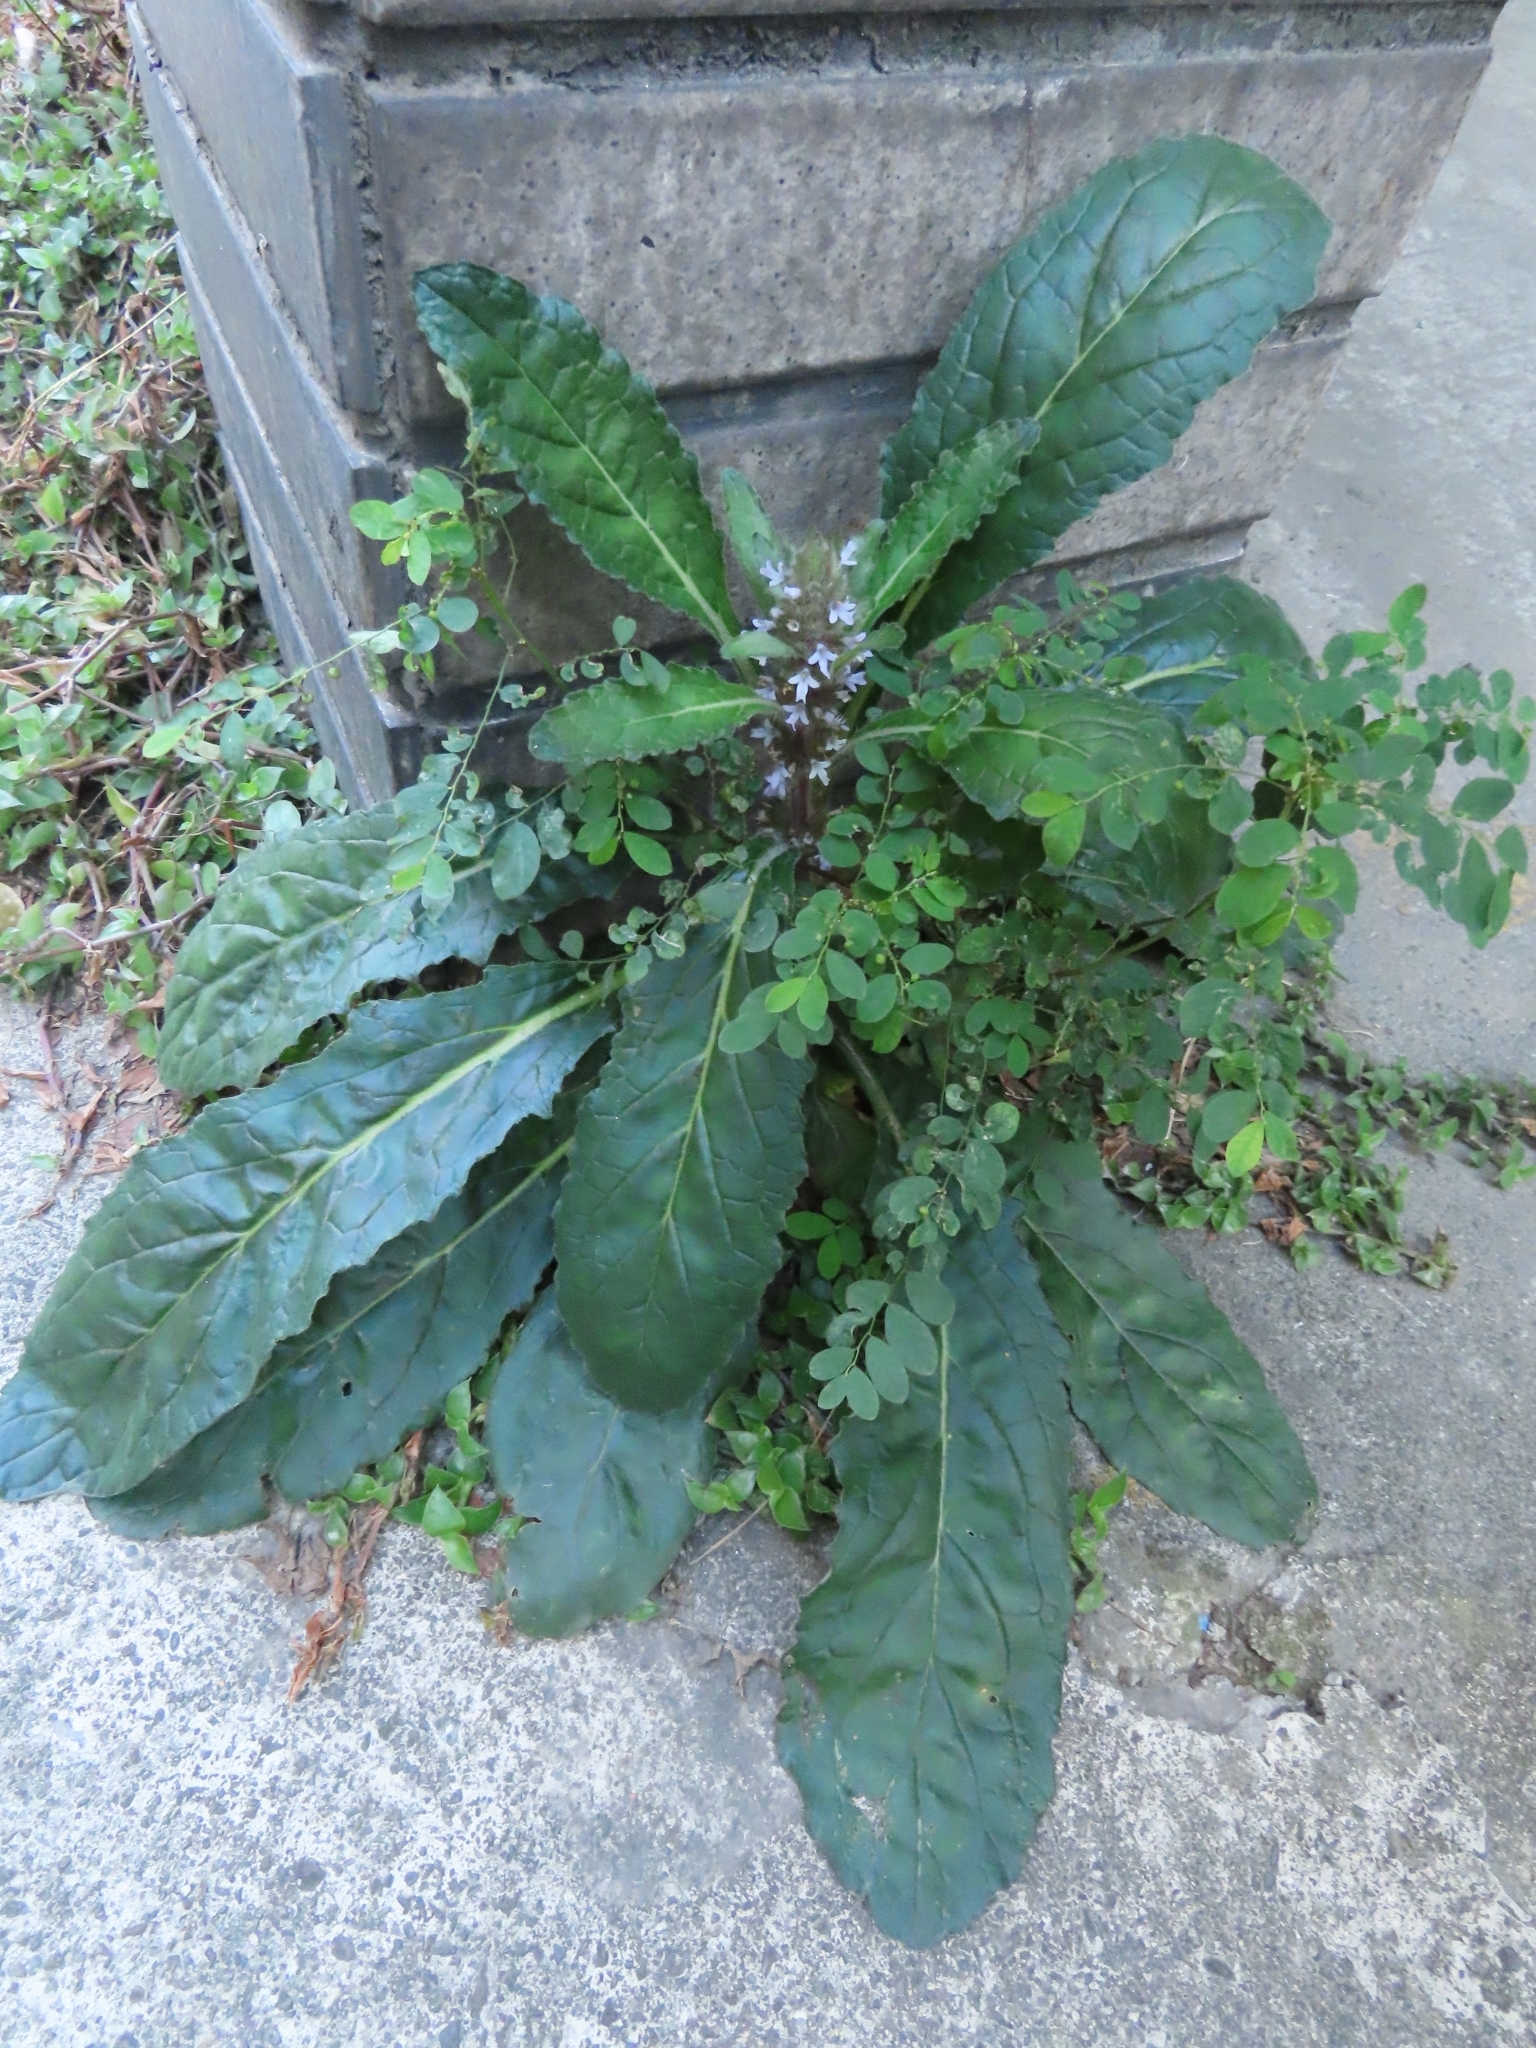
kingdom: Plantae
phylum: Tracheophyta
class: Magnoliopsida
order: Lamiales
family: Lamiaceae
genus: Ajuga
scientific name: Ajuga taiwanensis
